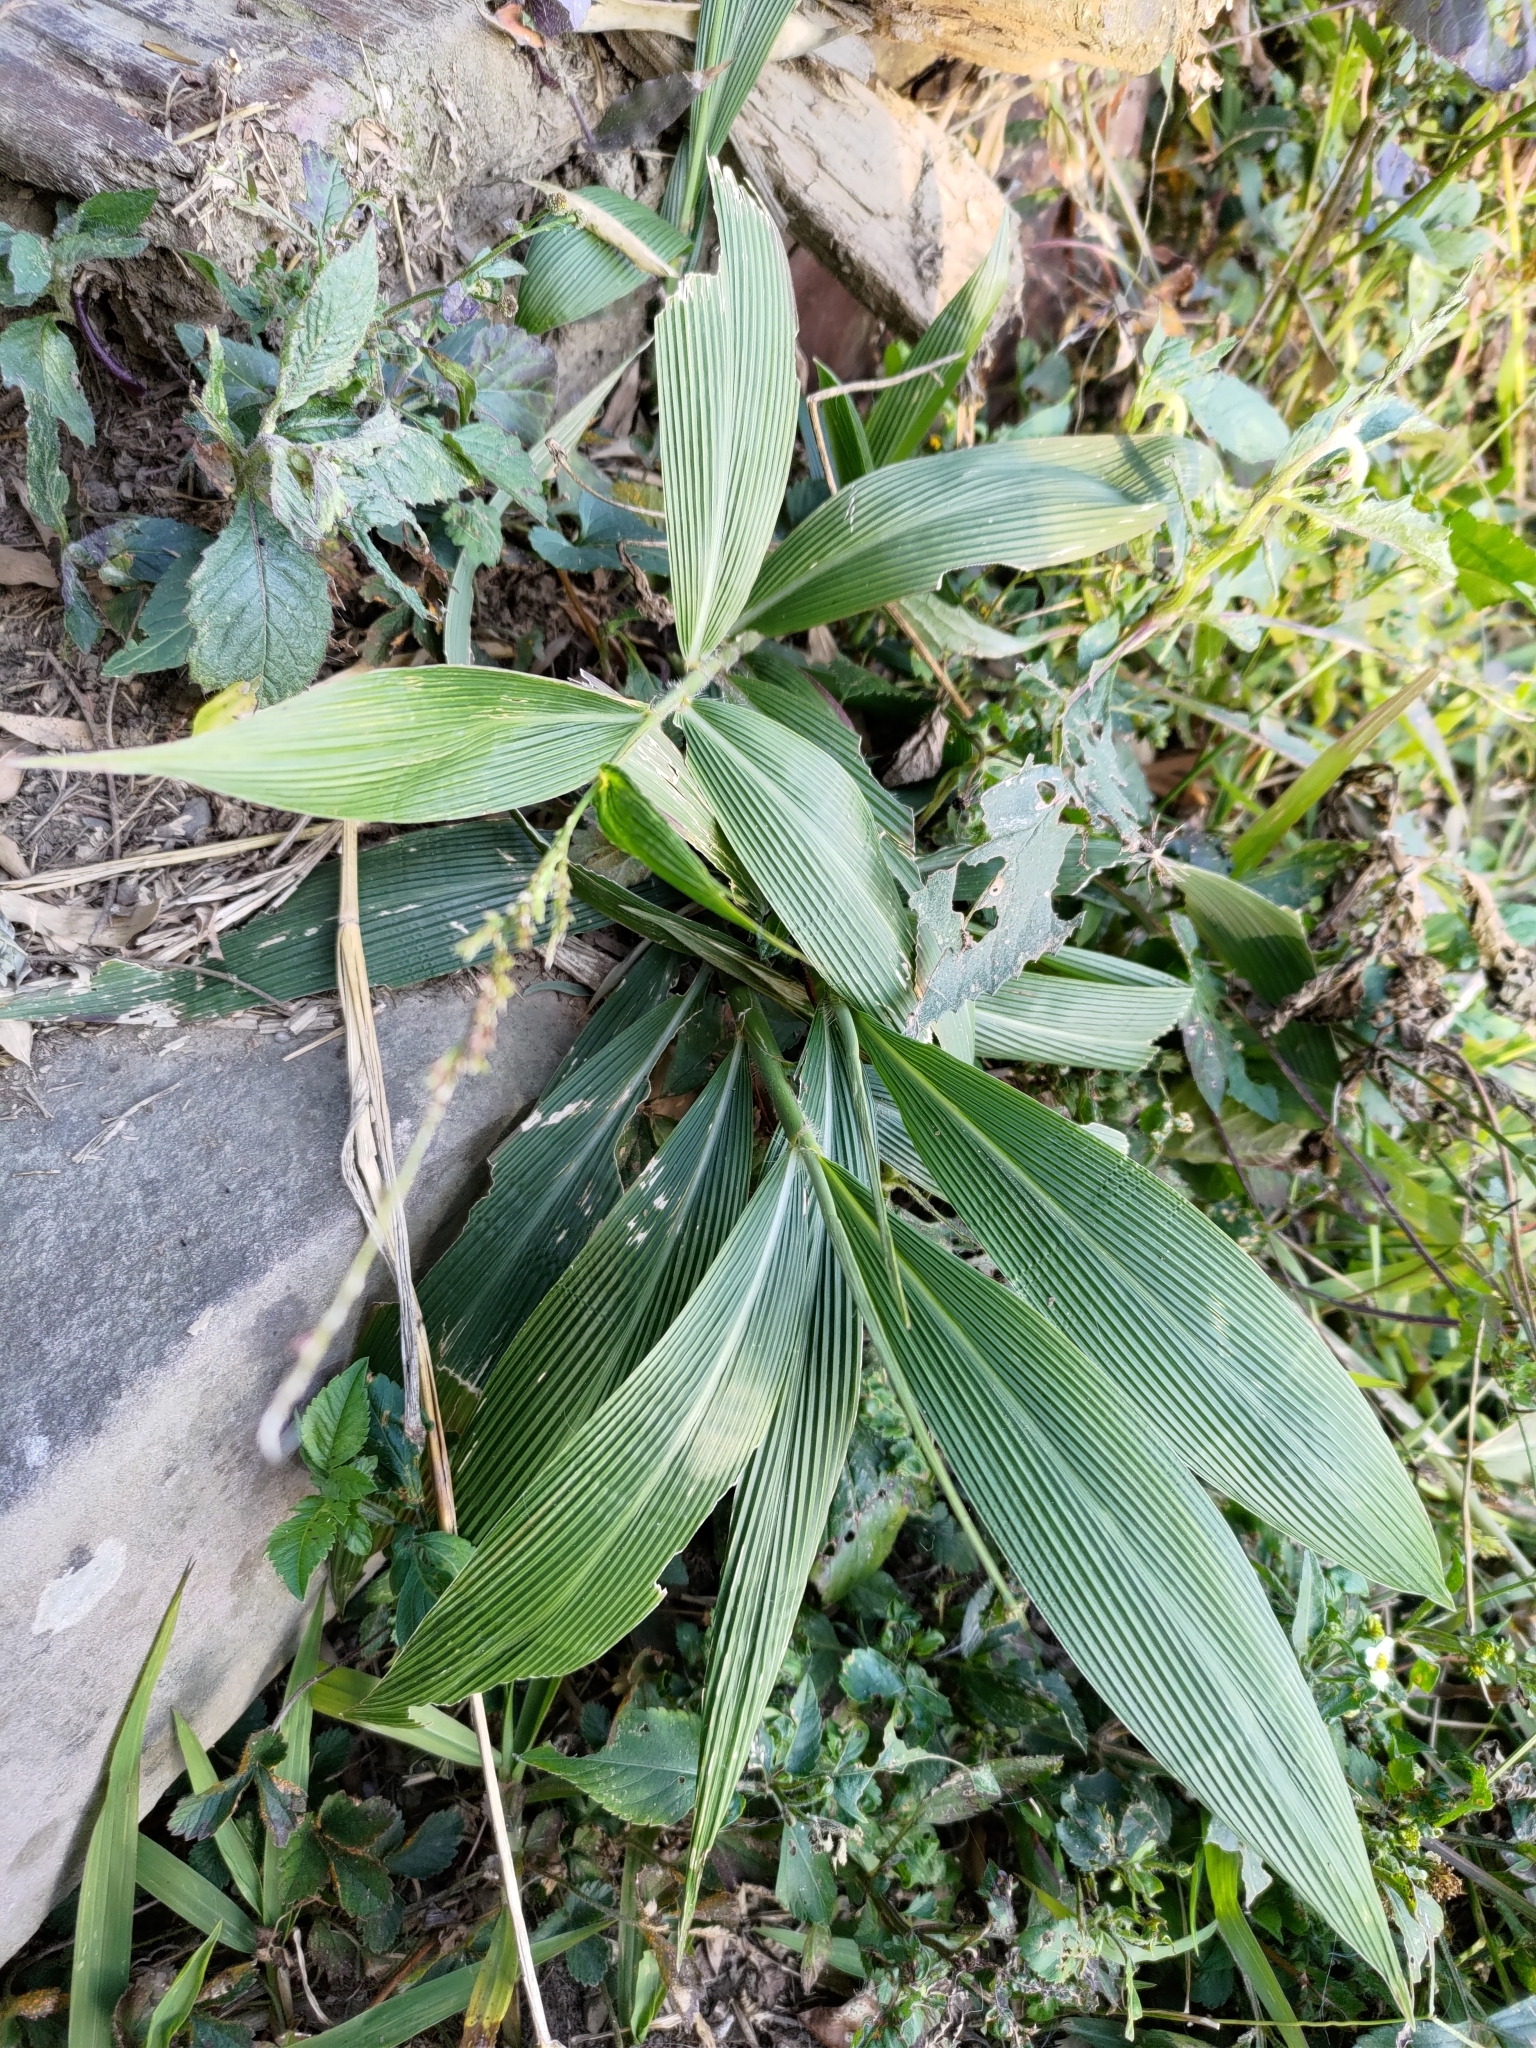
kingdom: Plantae
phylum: Tracheophyta
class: Liliopsida
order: Poales
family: Poaceae
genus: Setaria
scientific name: Setaria palmifolia
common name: Broadleaved bristlegrass
